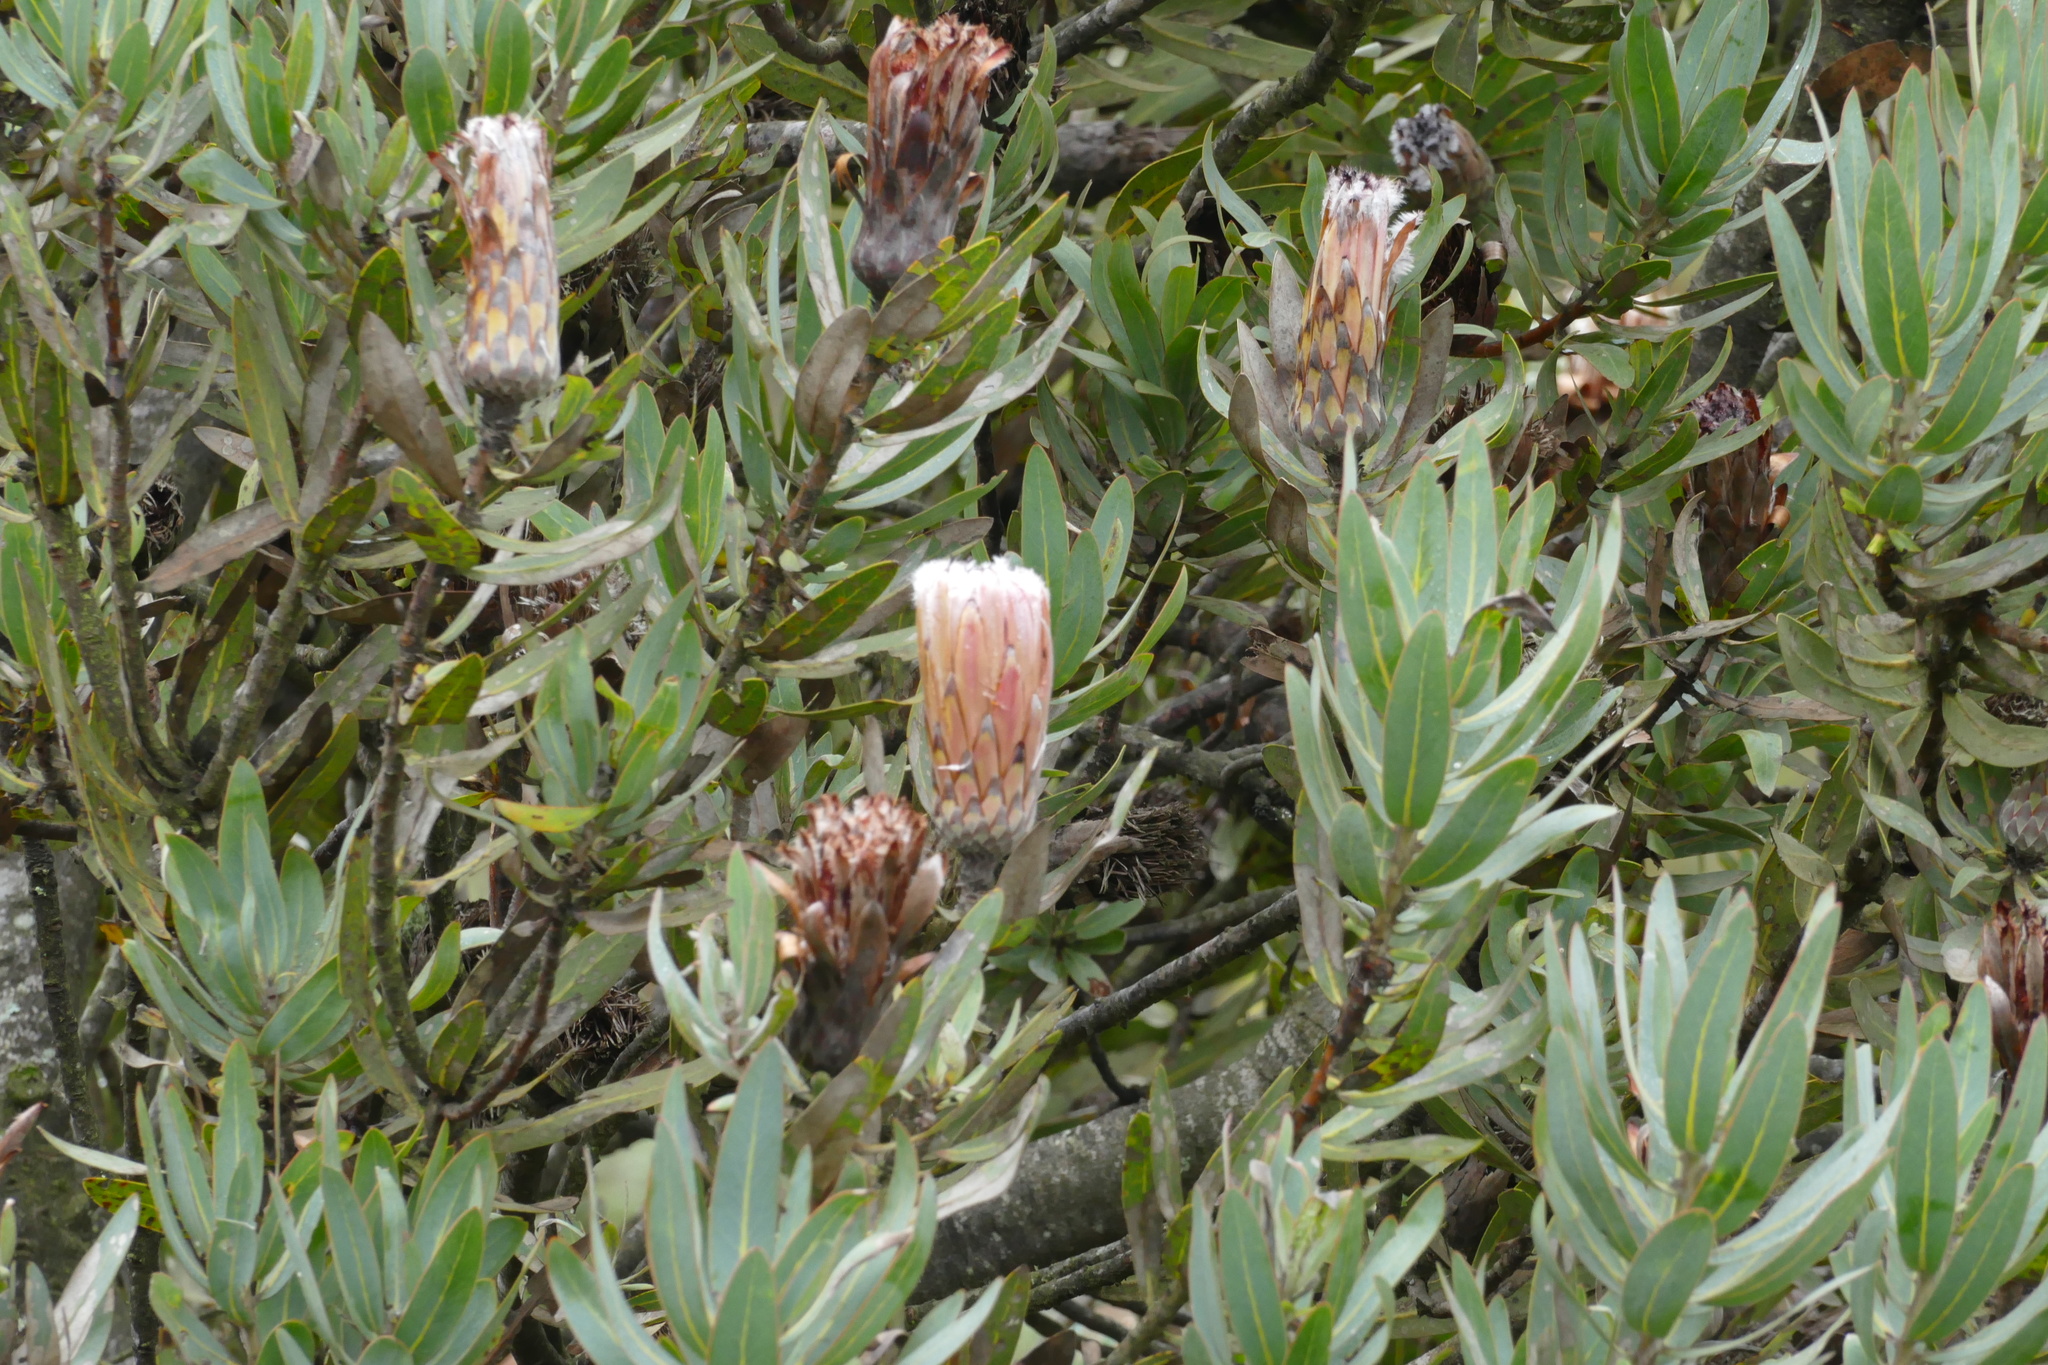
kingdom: Plantae
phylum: Tracheophyta
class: Magnoliopsida
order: Proteales
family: Proteaceae
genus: Protea
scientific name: Protea laurifolia
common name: Grey-leaf sugarbsh
